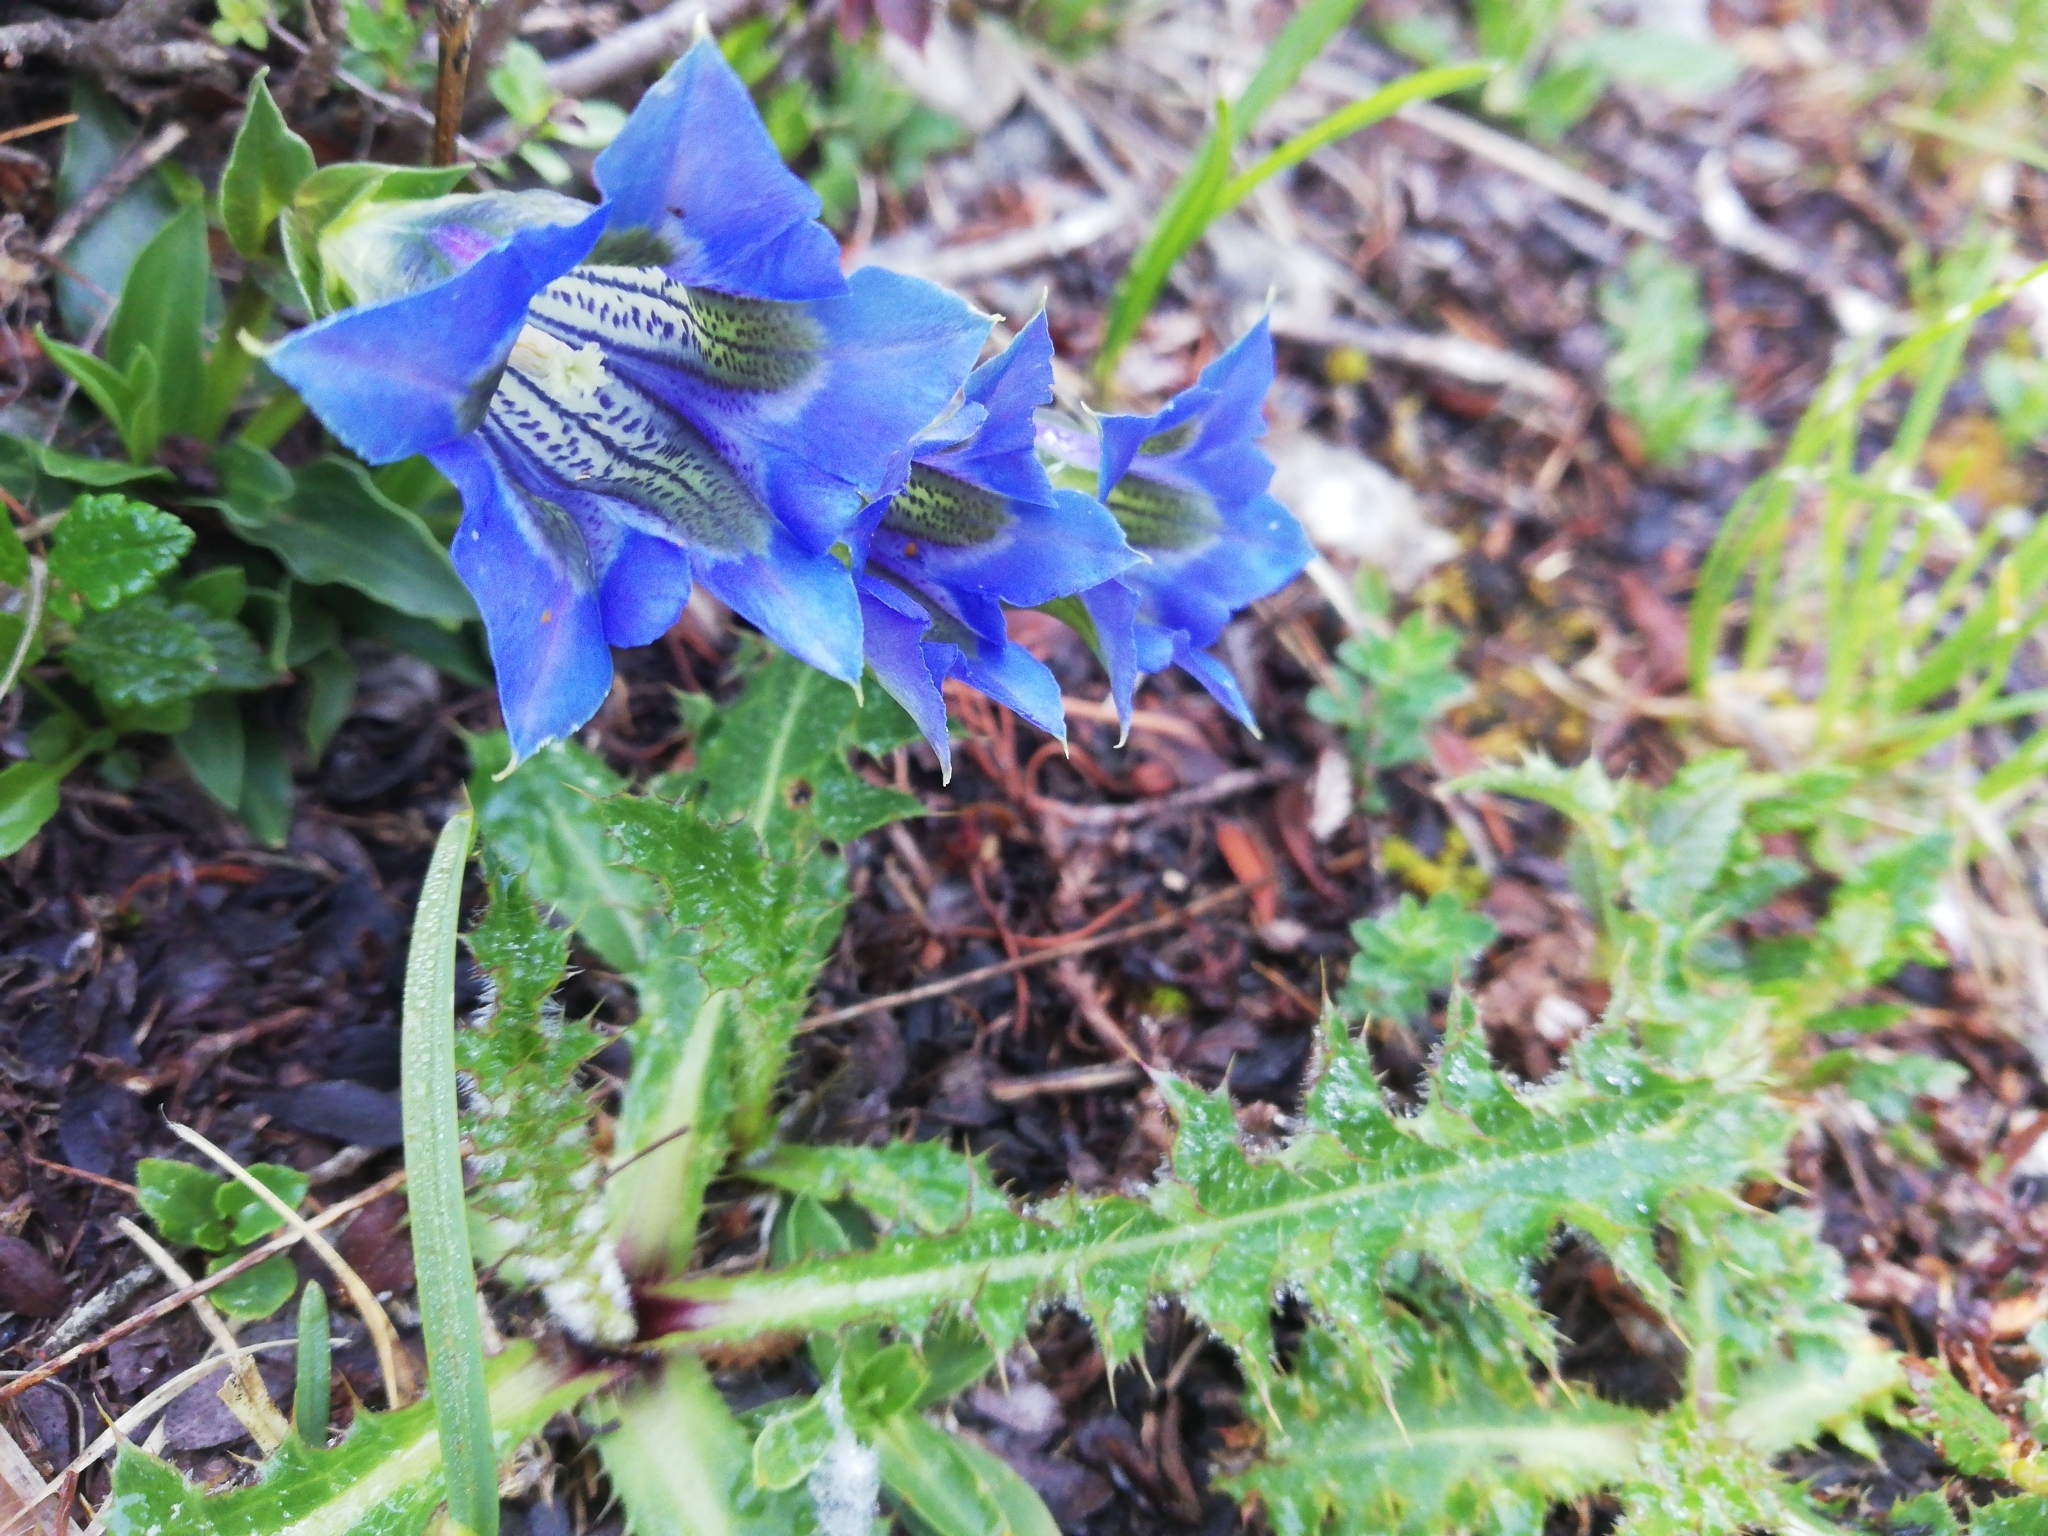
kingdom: Plantae
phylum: Tracheophyta
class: Magnoliopsida
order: Gentianales
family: Gentianaceae
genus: Gentiana
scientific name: Gentiana acaulis
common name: Trumpet gentian
